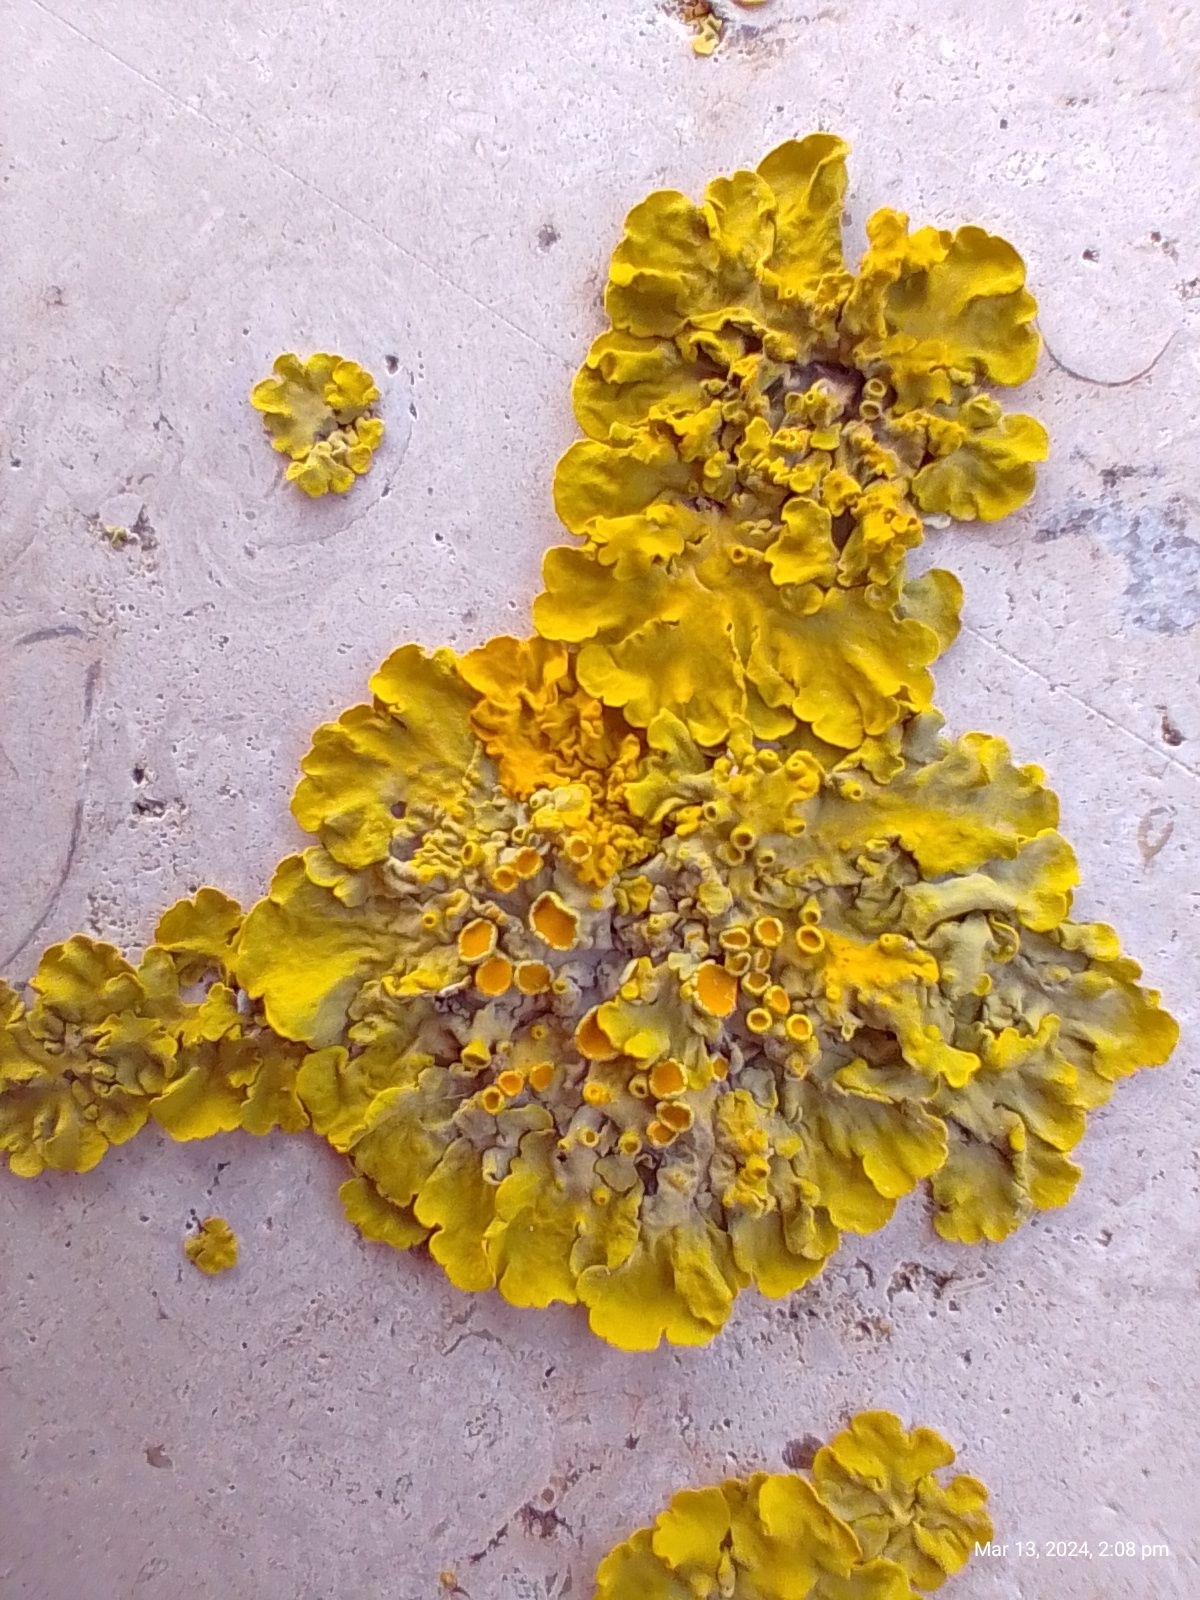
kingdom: Fungi
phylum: Ascomycota
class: Lecanoromycetes
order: Teloschistales
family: Teloschistaceae
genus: Xanthoria
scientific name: Xanthoria parietina
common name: Common orange lichen
